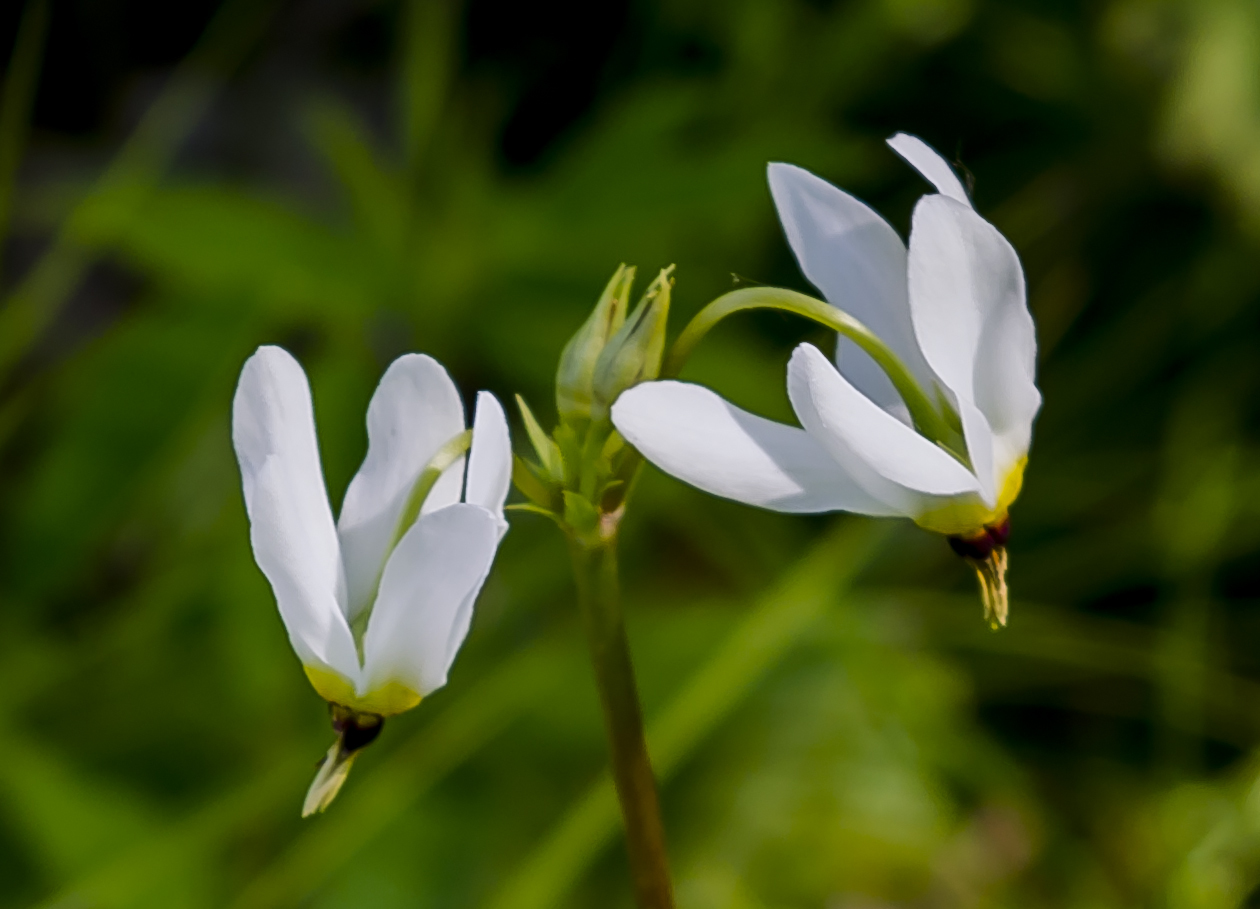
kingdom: Plantae
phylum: Tracheophyta
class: Magnoliopsida
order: Ericales
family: Primulaceae
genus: Dodecatheon
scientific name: Dodecatheon meadia
